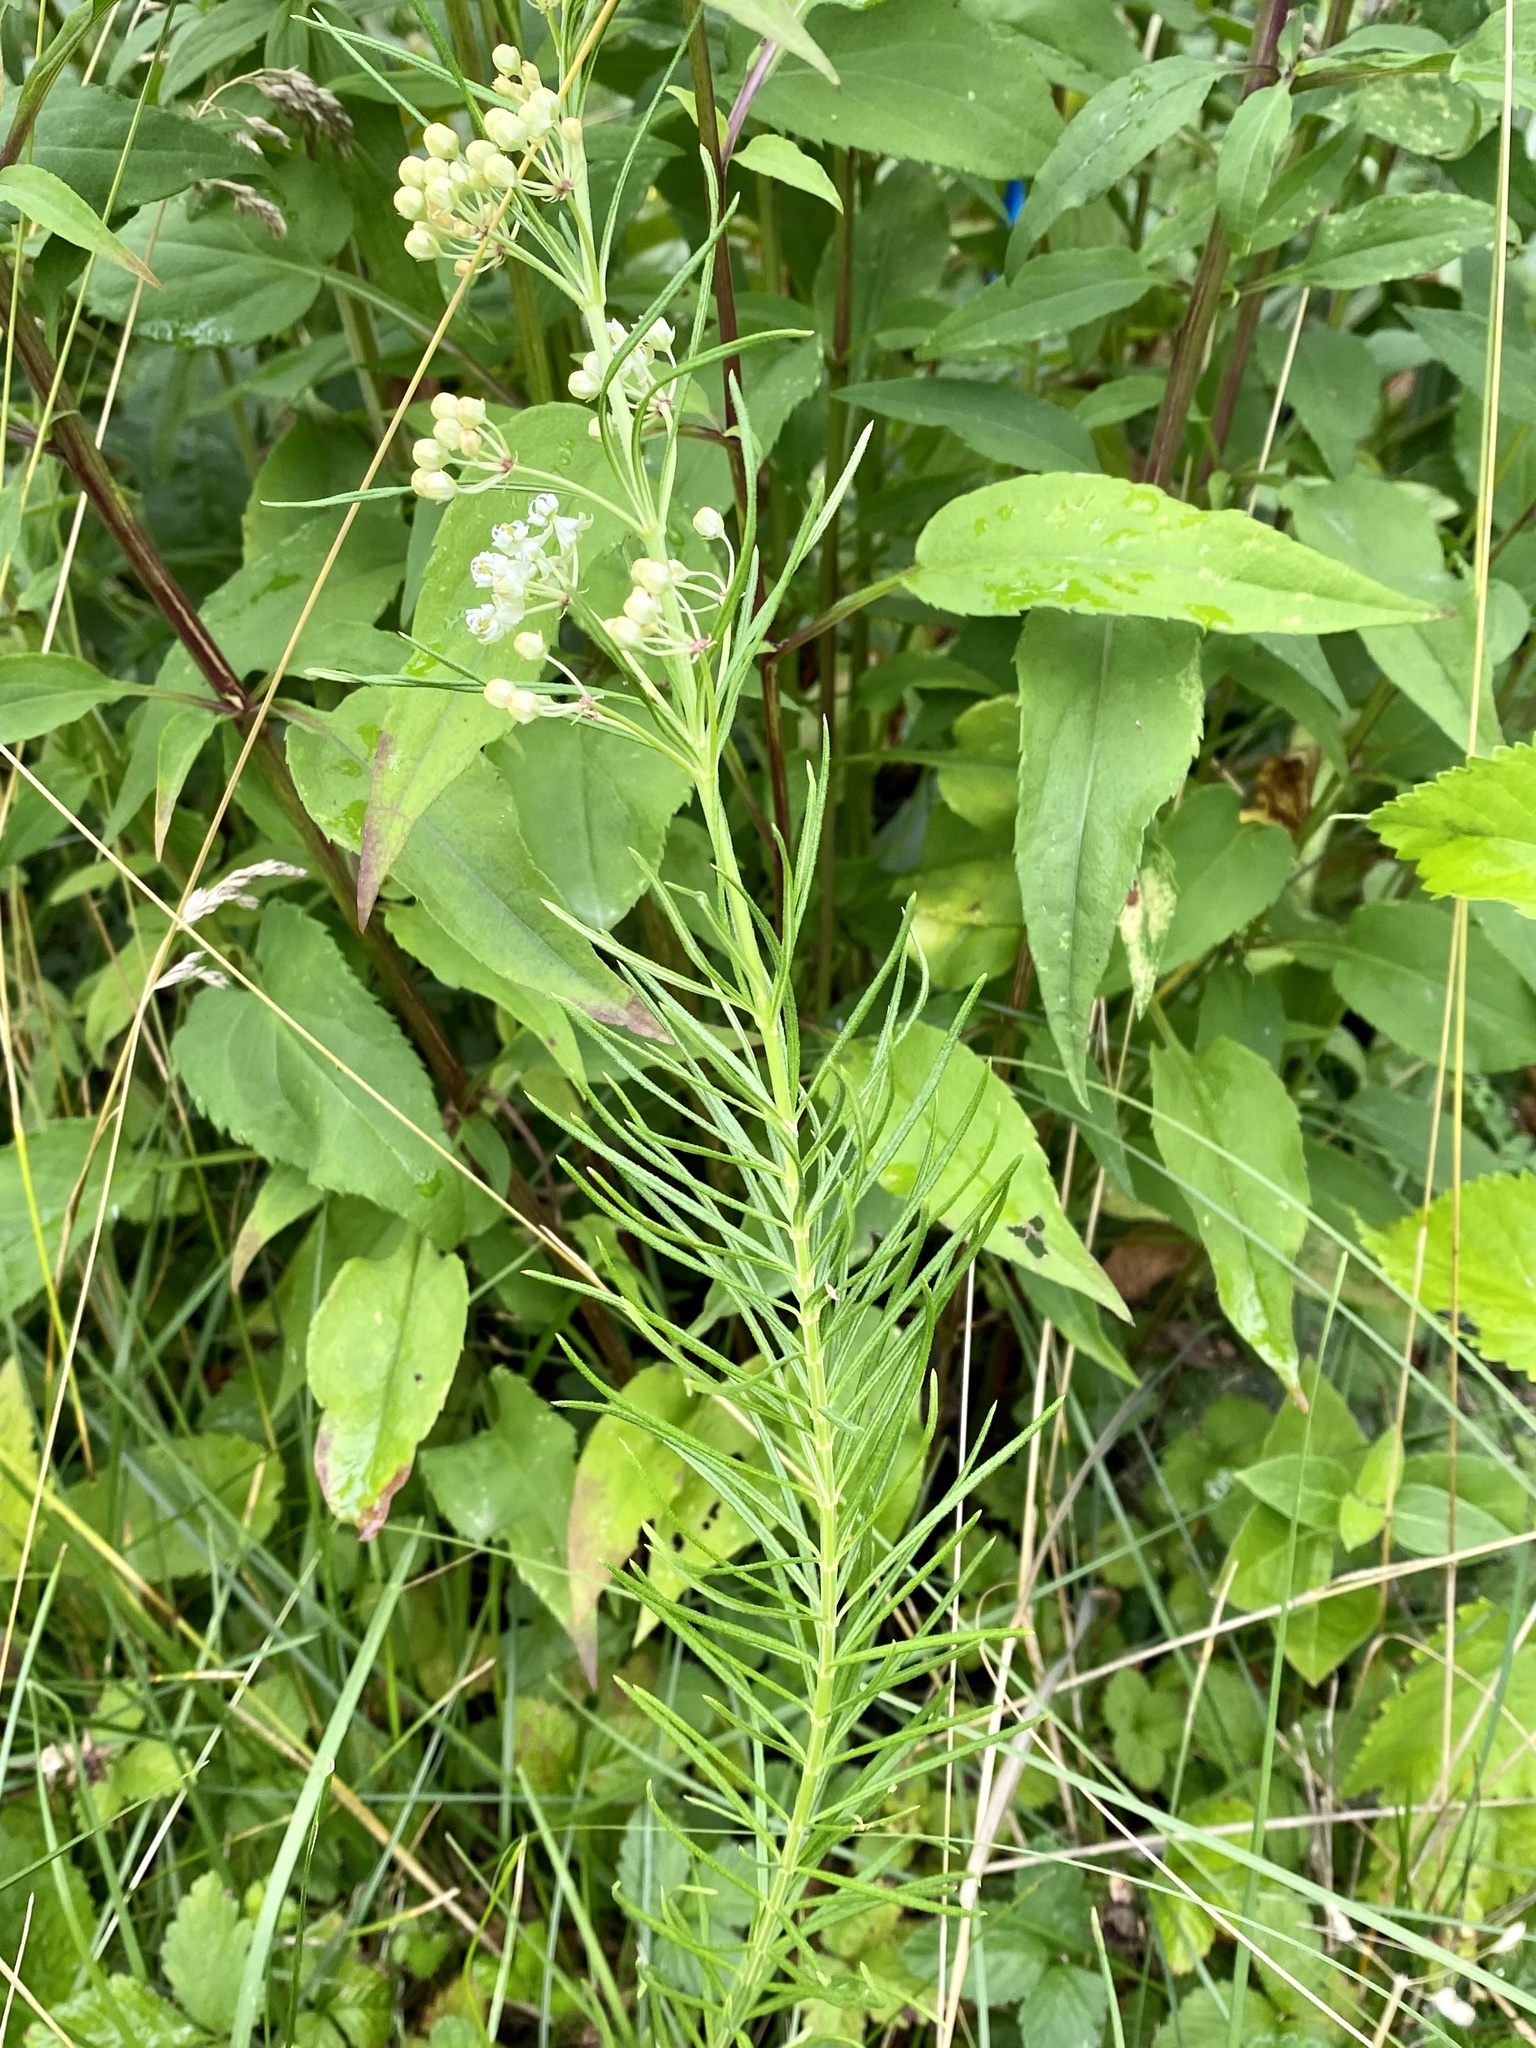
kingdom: Plantae
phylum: Tracheophyta
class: Magnoliopsida
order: Gentianales
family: Apocynaceae
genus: Asclepias
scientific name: Asclepias verticillata
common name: Eastern whorled milkweed
